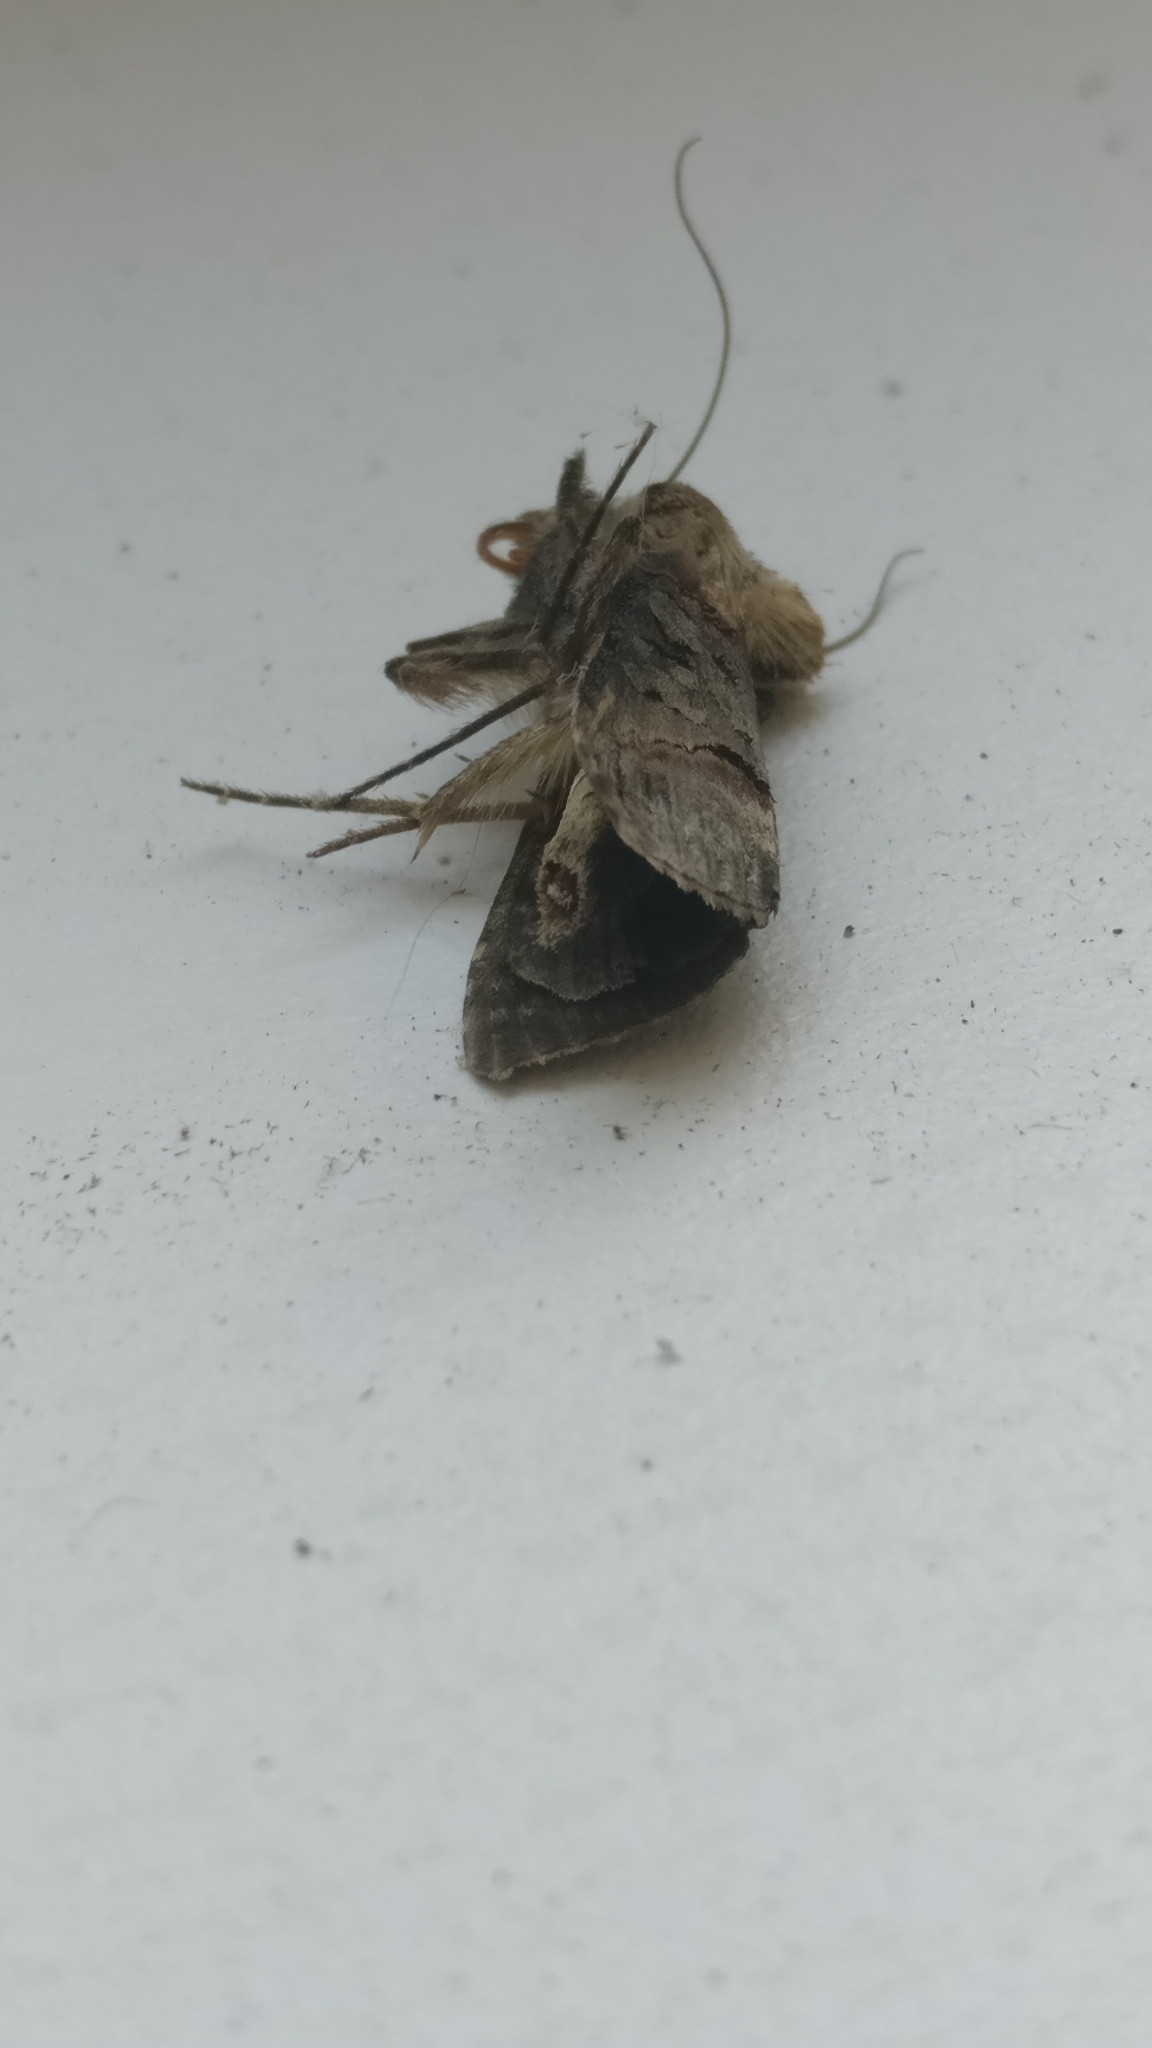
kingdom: Animalia
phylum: Arthropoda
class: Insecta
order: Lepidoptera
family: Noctuidae
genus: Abrostola
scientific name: Abrostola triplasia
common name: Dark spectacle
